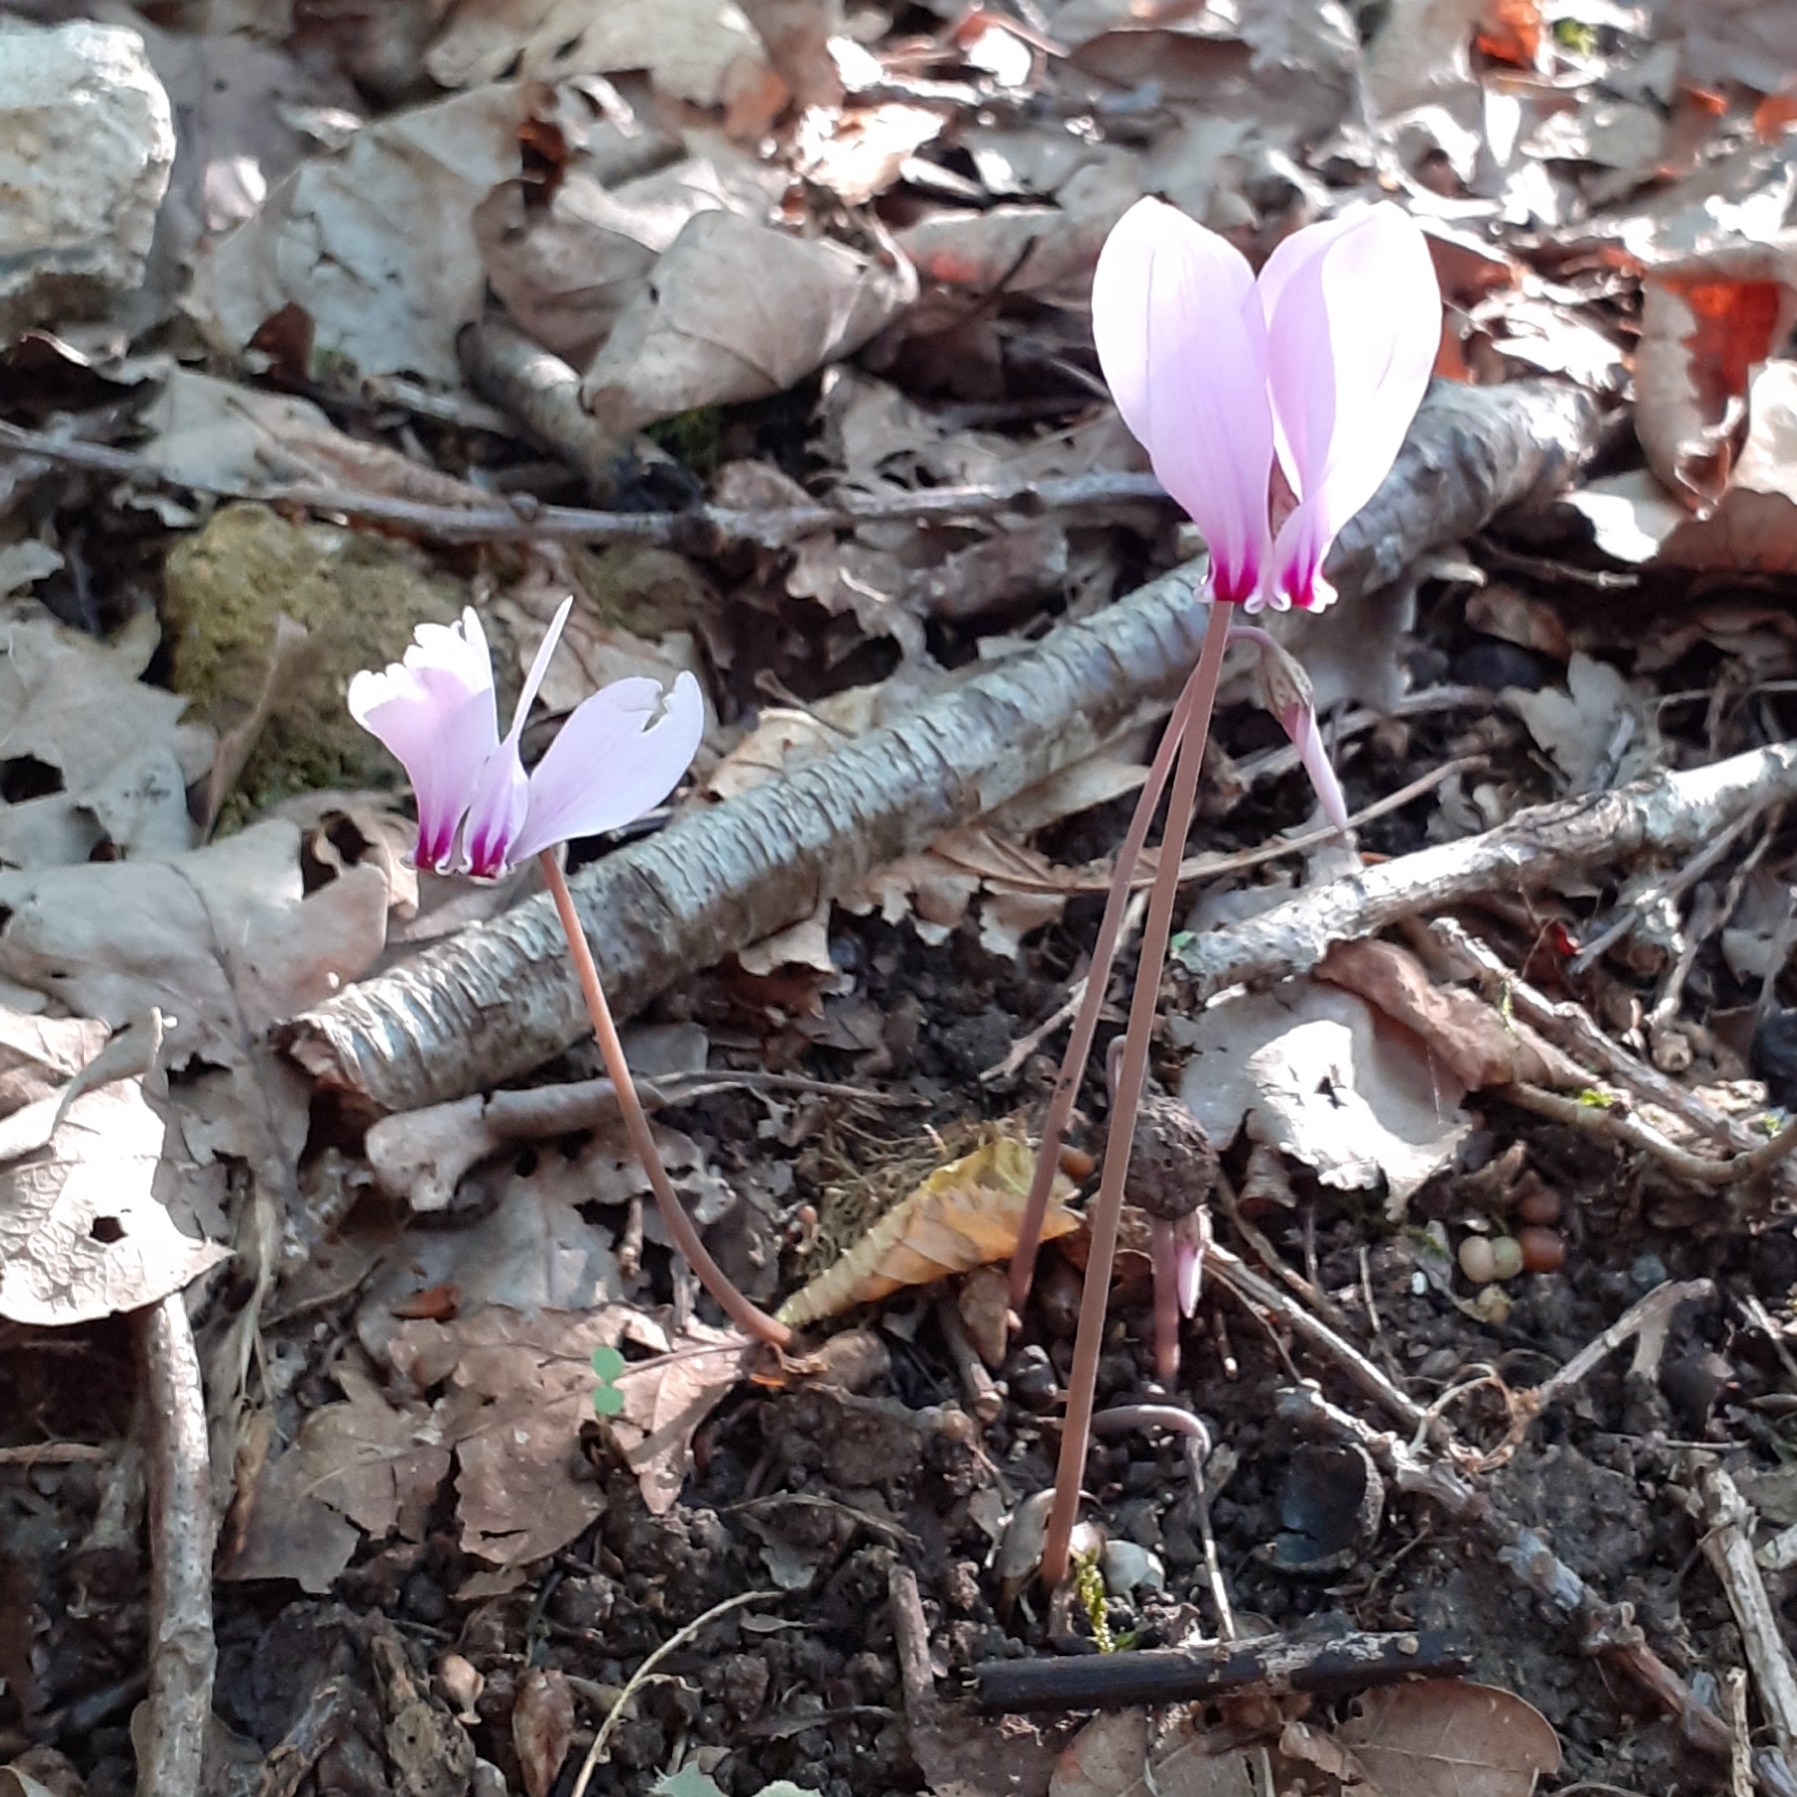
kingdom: Plantae
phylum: Tracheophyta
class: Magnoliopsida
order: Ericales
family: Primulaceae
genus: Cyclamen
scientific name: Cyclamen hederifolium
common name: Sowbread
